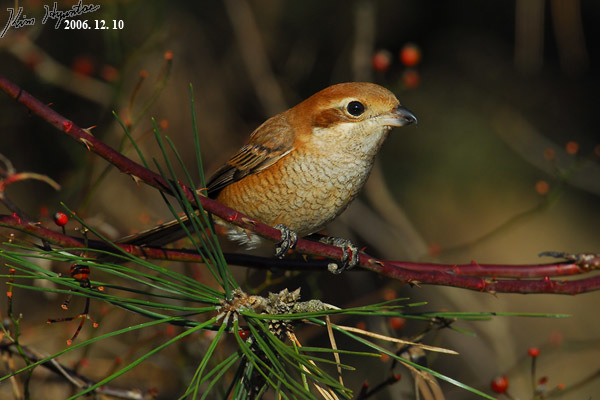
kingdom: Animalia
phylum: Chordata
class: Aves
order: Passeriformes
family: Laniidae
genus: Lanius
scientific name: Lanius bucephalus
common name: Bull-headed shrike
